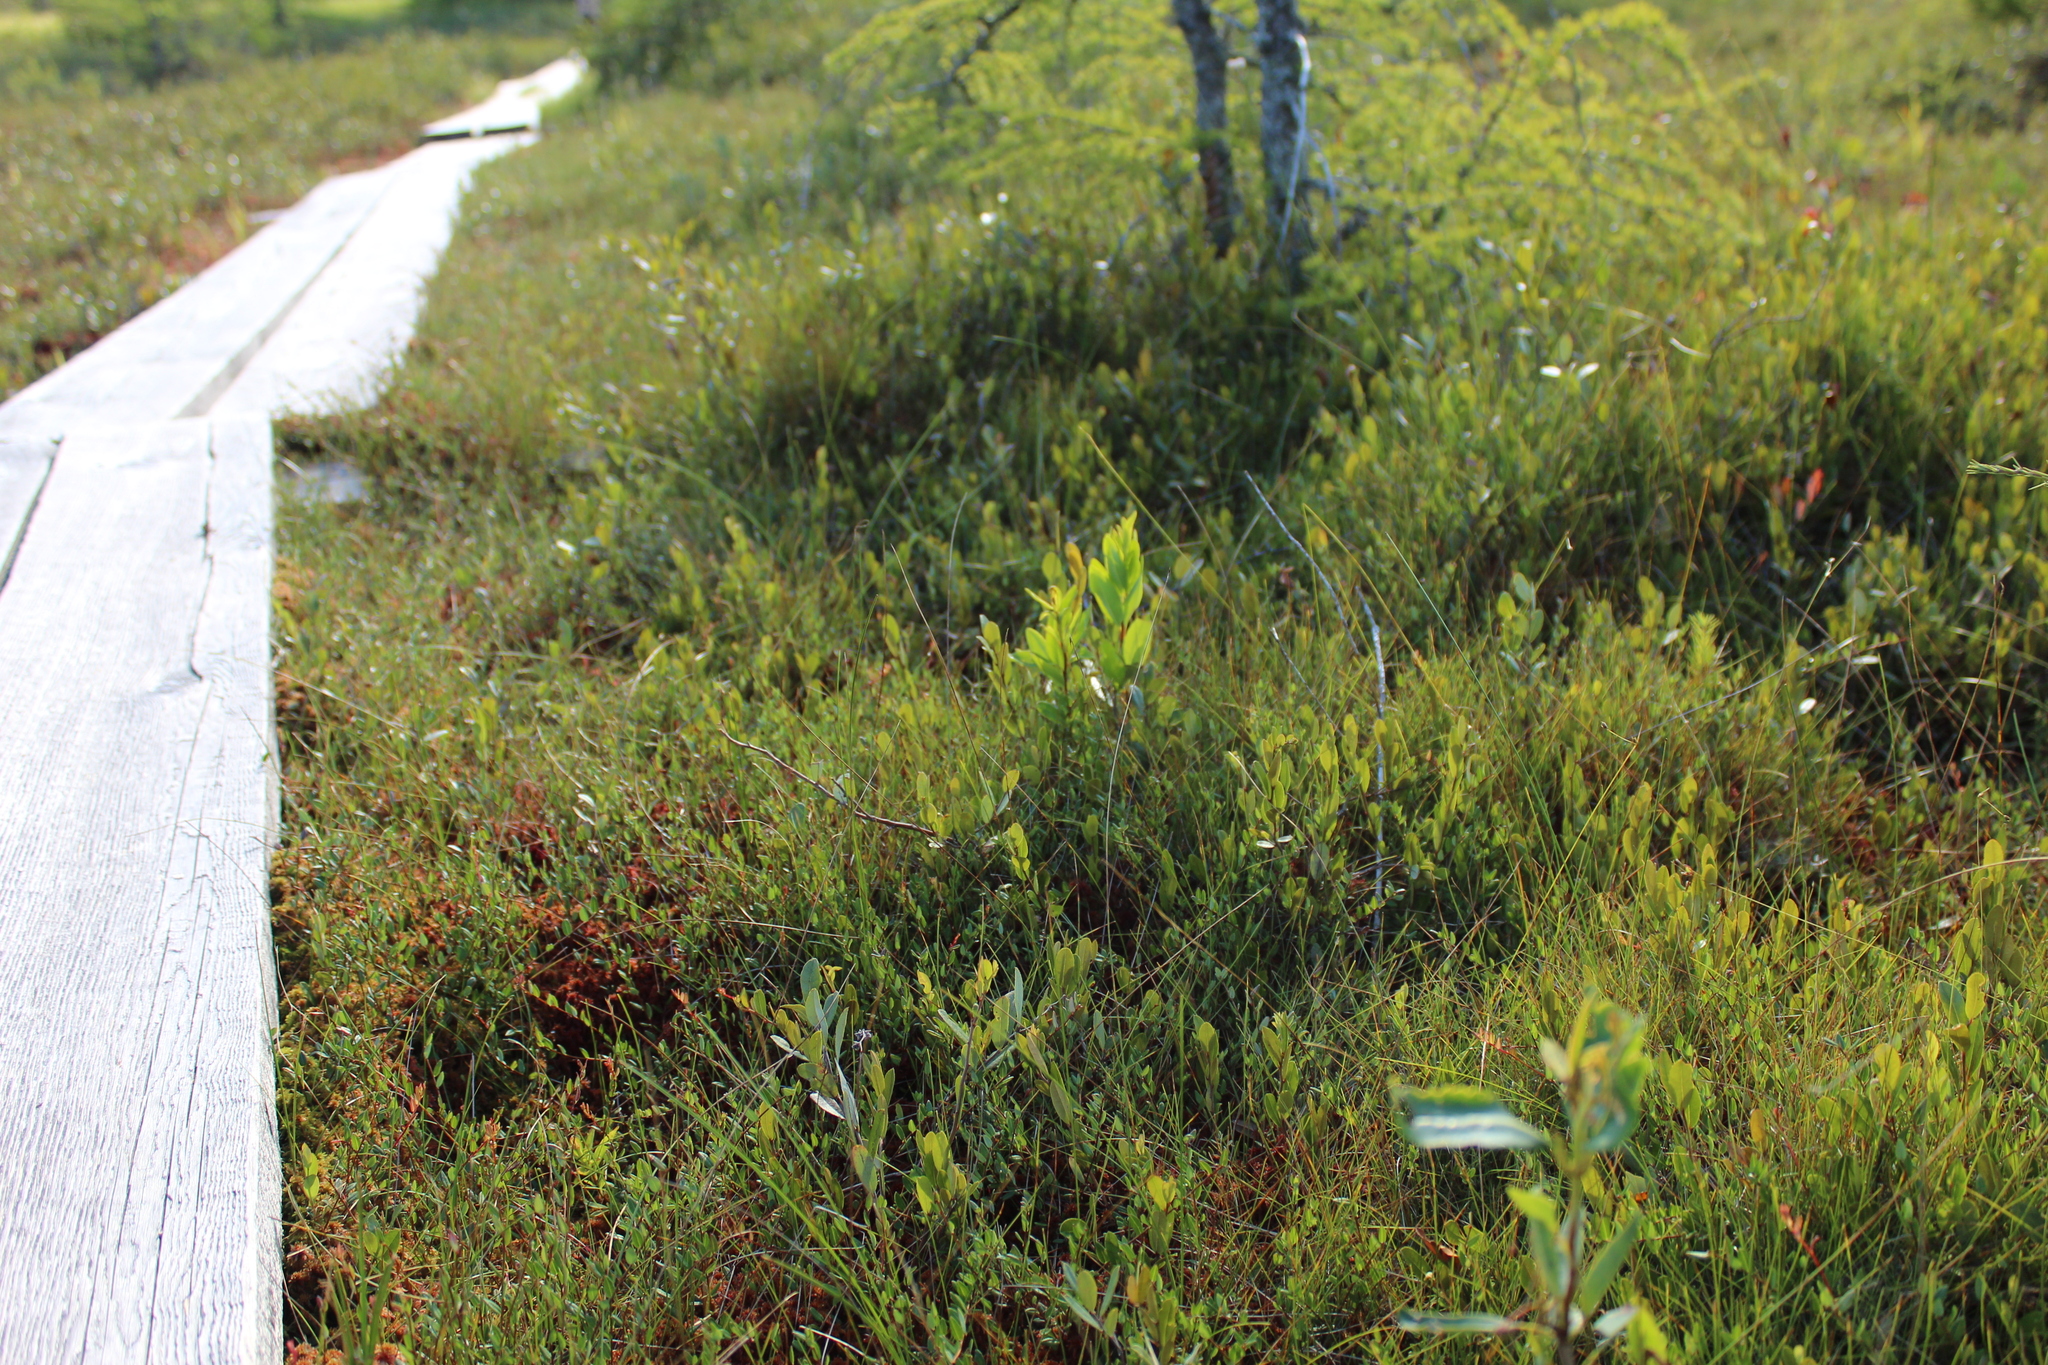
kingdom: Plantae
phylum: Tracheophyta
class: Magnoliopsida
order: Ericales
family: Ericaceae
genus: Chamaedaphne
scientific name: Chamaedaphne calyculata
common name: Leatherleaf
